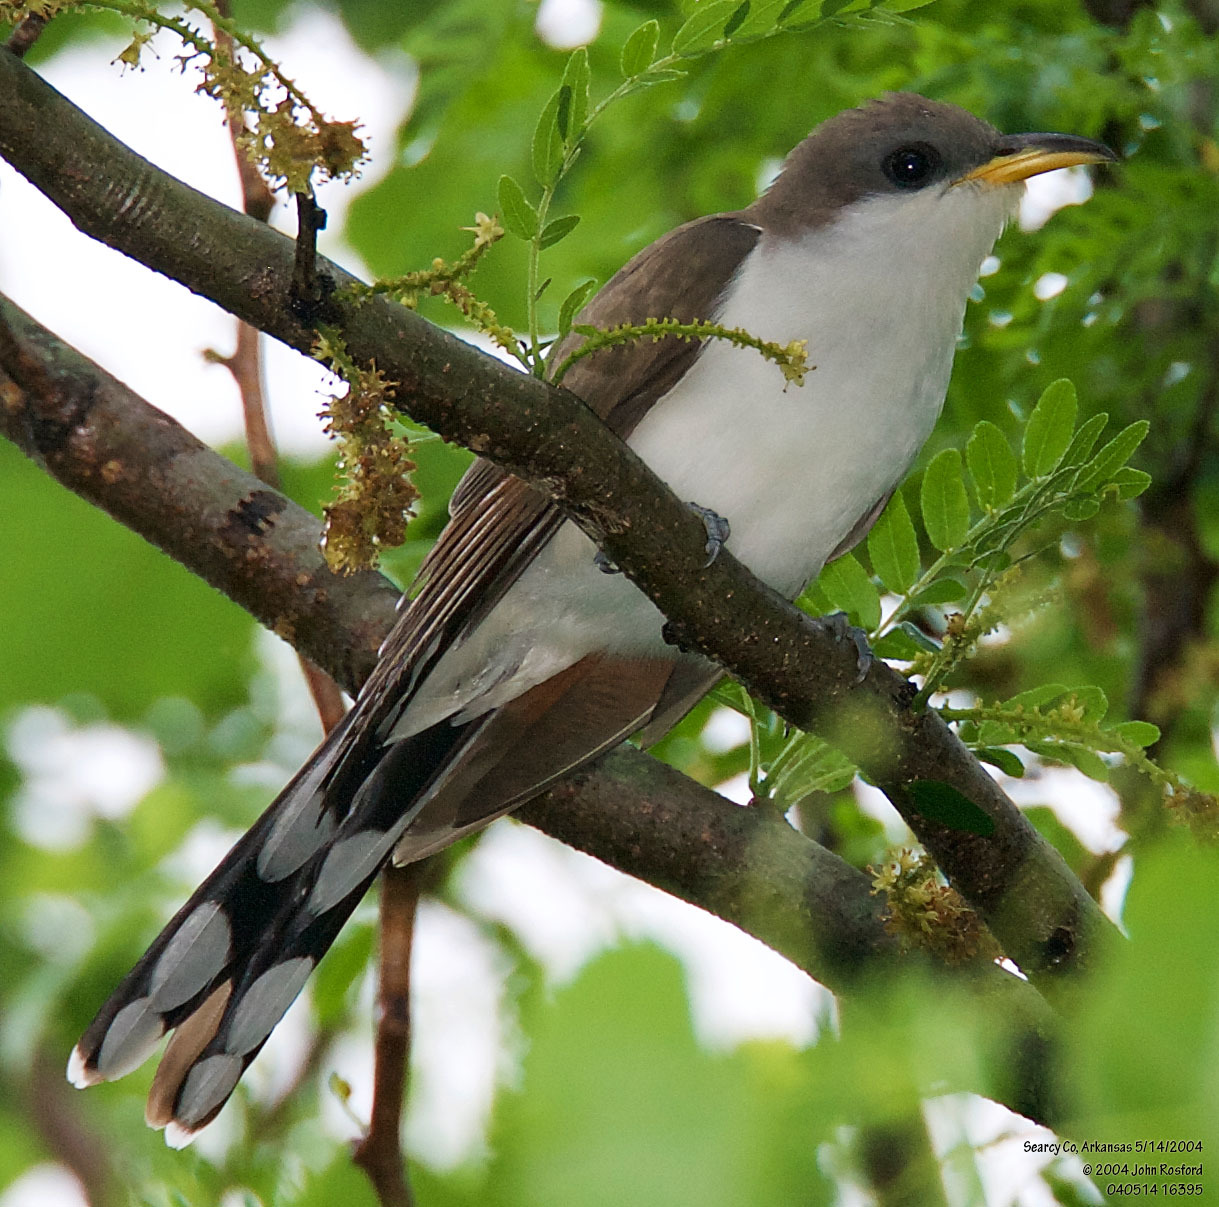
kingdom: Animalia
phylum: Chordata
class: Aves
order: Cuculiformes
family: Cuculidae
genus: Coccyzus
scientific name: Coccyzus americanus
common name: Yellow-billed cuckoo
